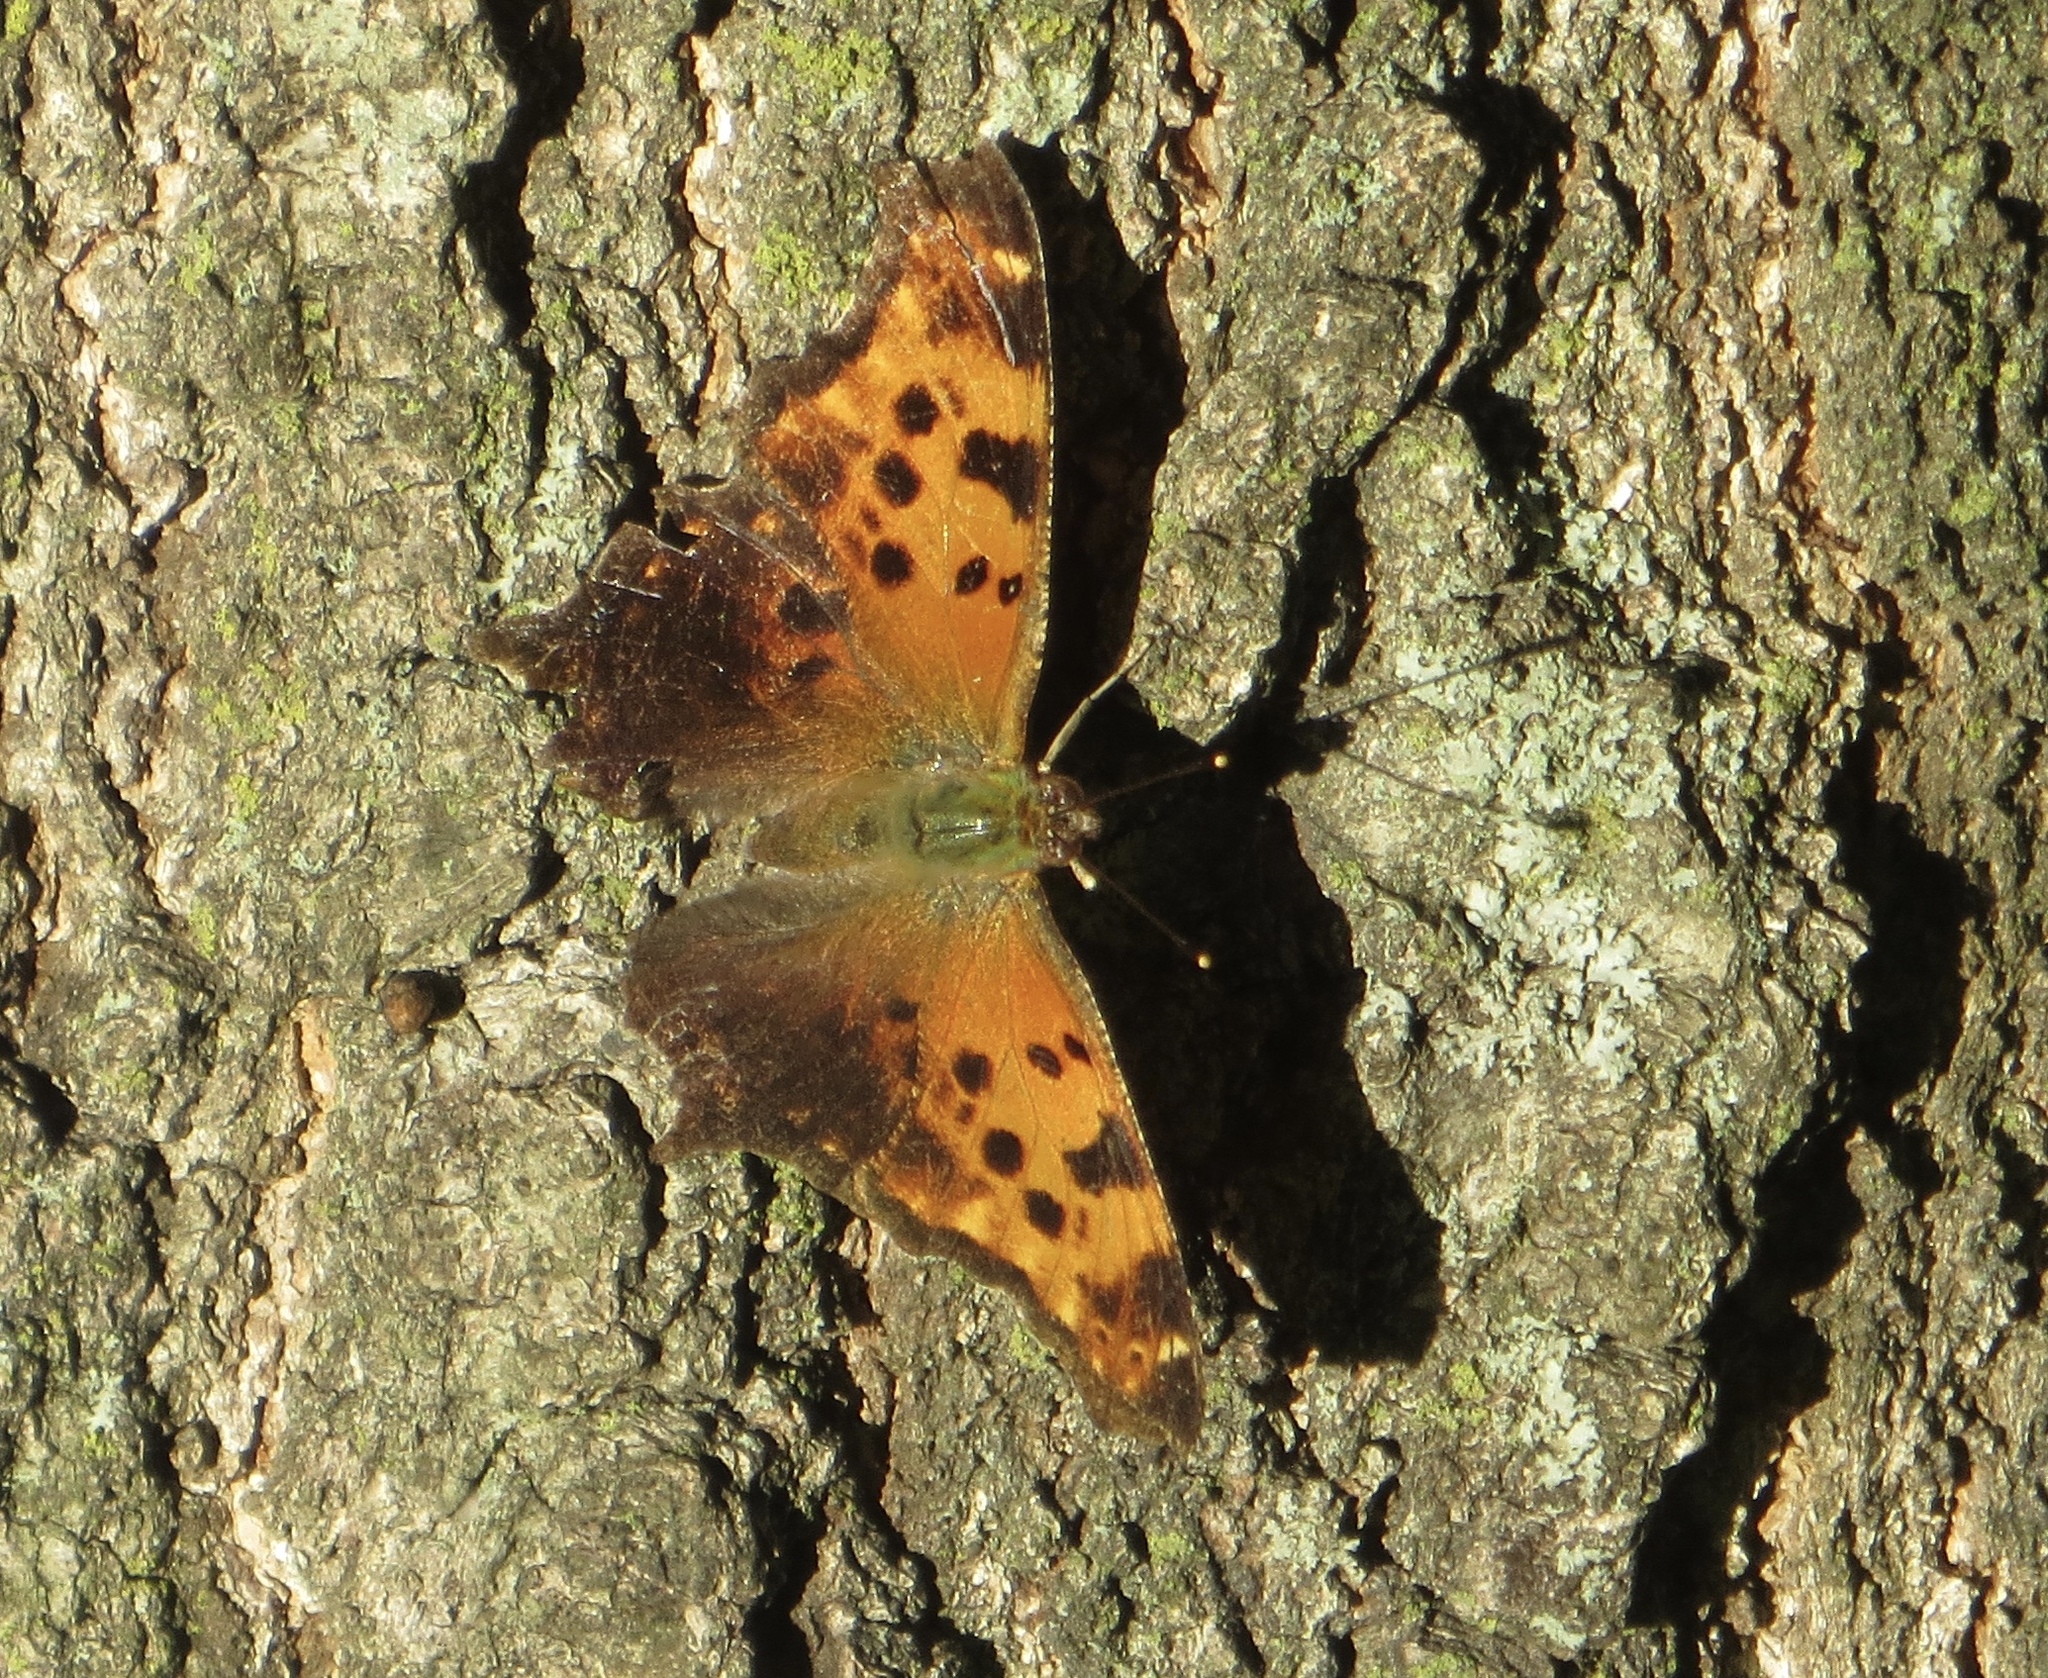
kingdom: Animalia
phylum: Arthropoda
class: Insecta
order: Lepidoptera
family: Nymphalidae
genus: Polygonia
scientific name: Polygonia interrogationis
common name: Question mark
